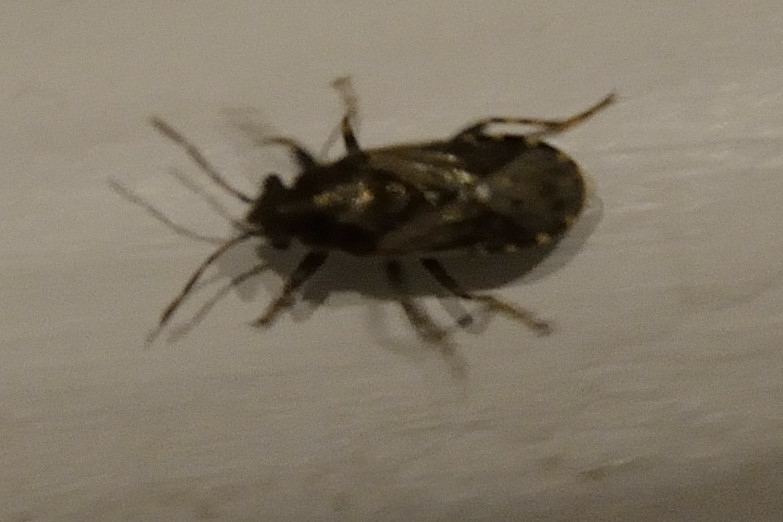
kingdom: Animalia
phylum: Arthropoda
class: Insecta
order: Hemiptera
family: Heterogastridae
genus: Heterogaster
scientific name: Heterogaster urticae
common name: Seed bug
